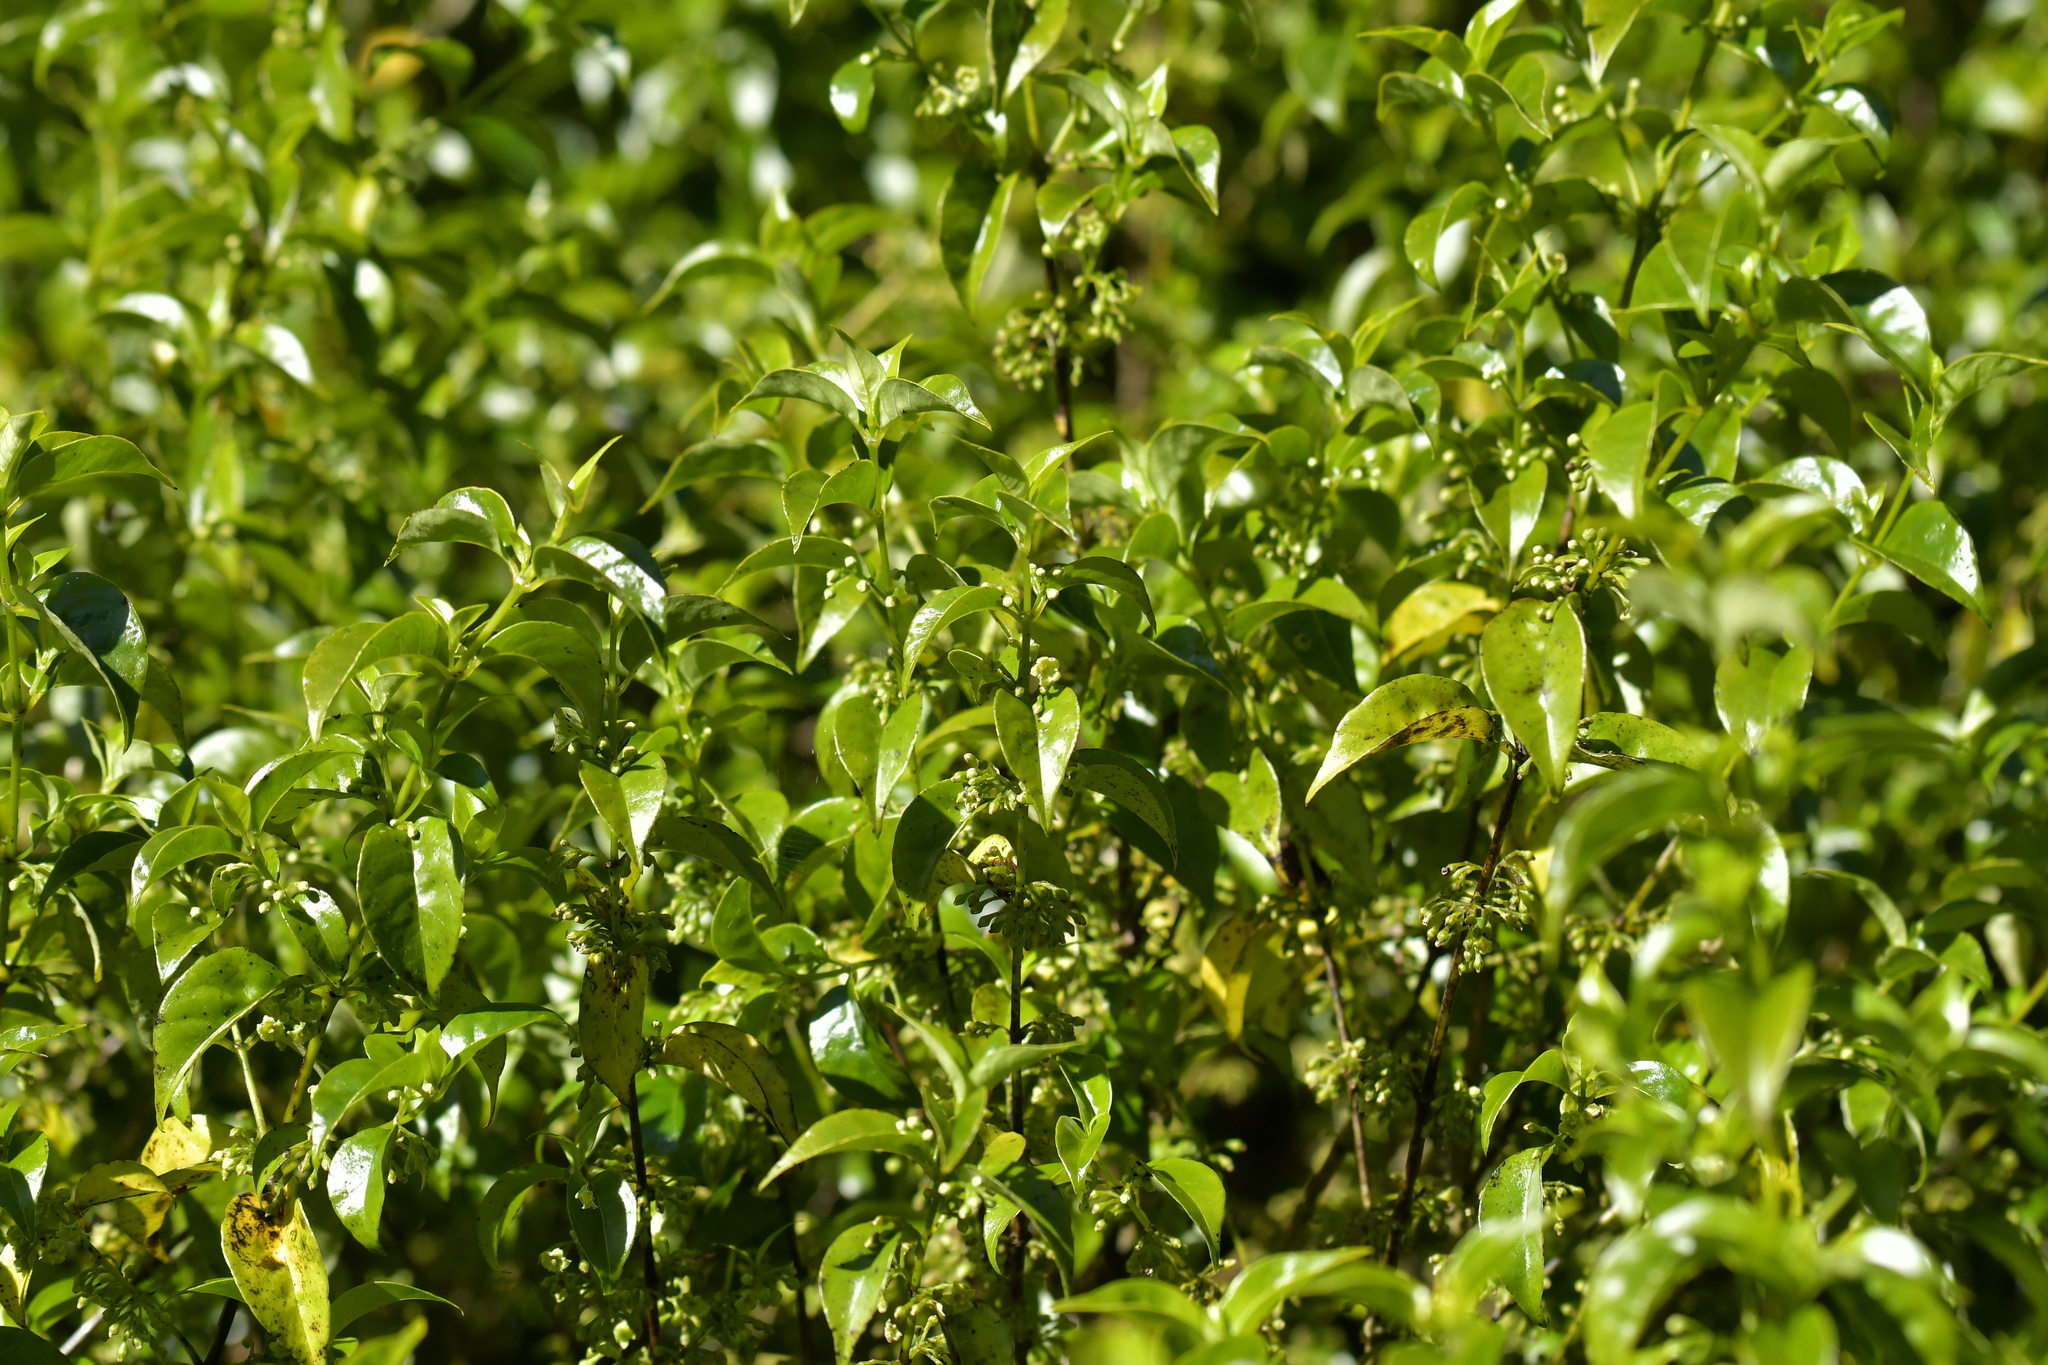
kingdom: Plantae
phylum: Tracheophyta
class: Magnoliopsida
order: Gentianales
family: Loganiaceae
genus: Geniostoma
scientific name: Geniostoma ligustrifolium
